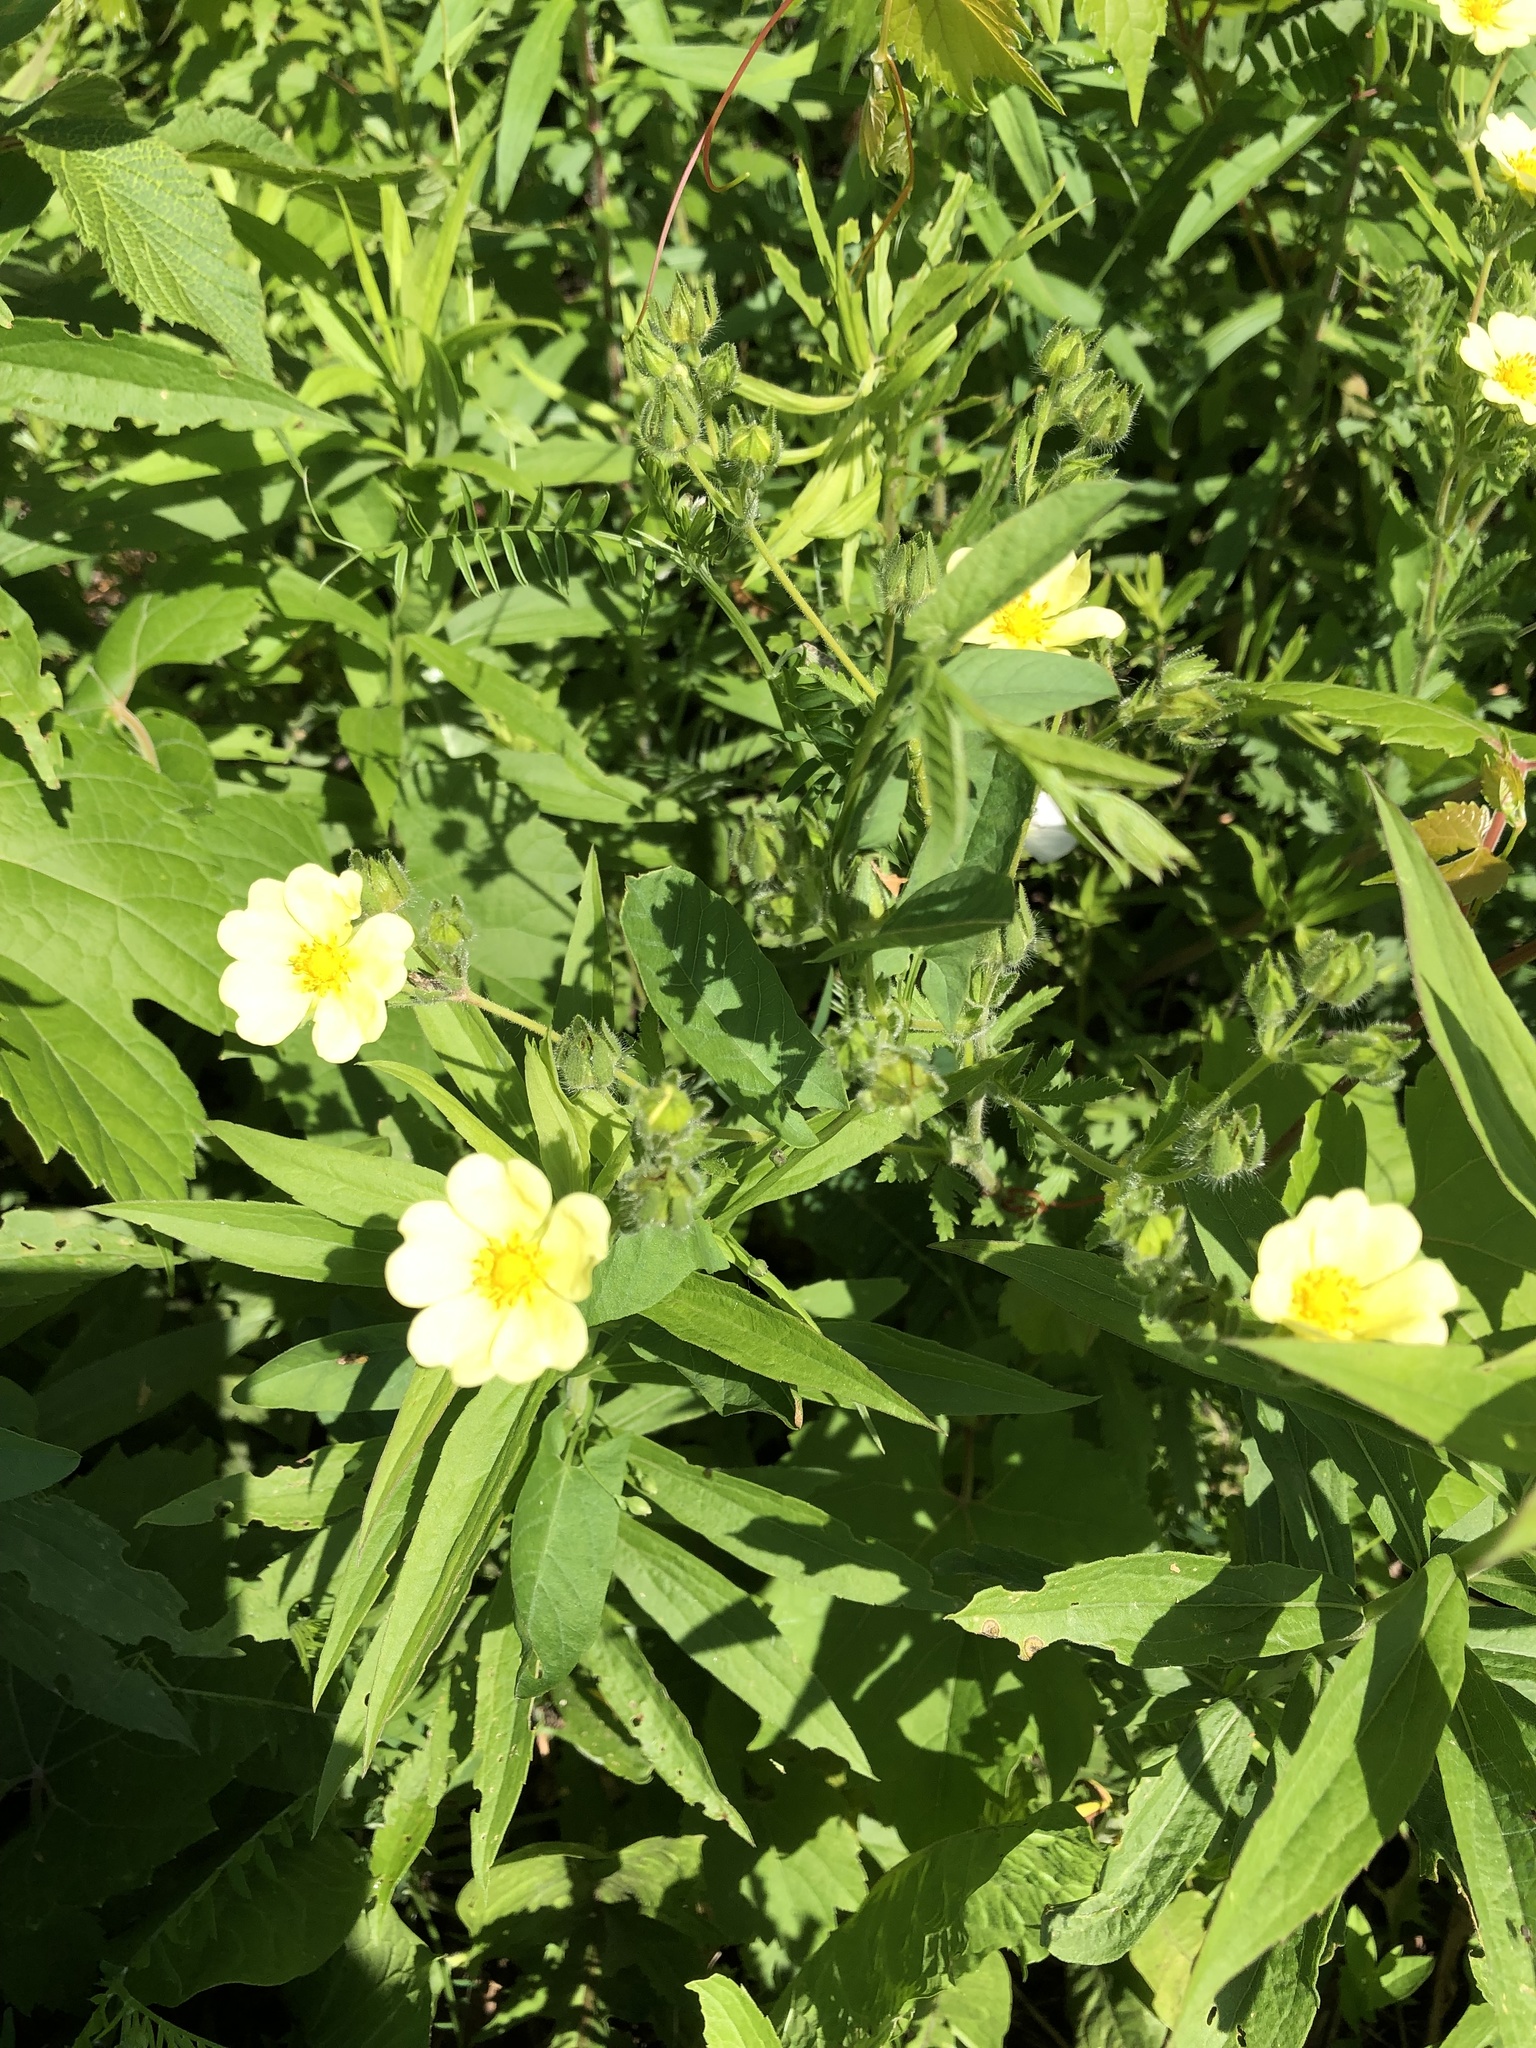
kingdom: Plantae
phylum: Tracheophyta
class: Magnoliopsida
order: Rosales
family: Rosaceae
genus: Potentilla
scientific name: Potentilla recta
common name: Sulphur cinquefoil
